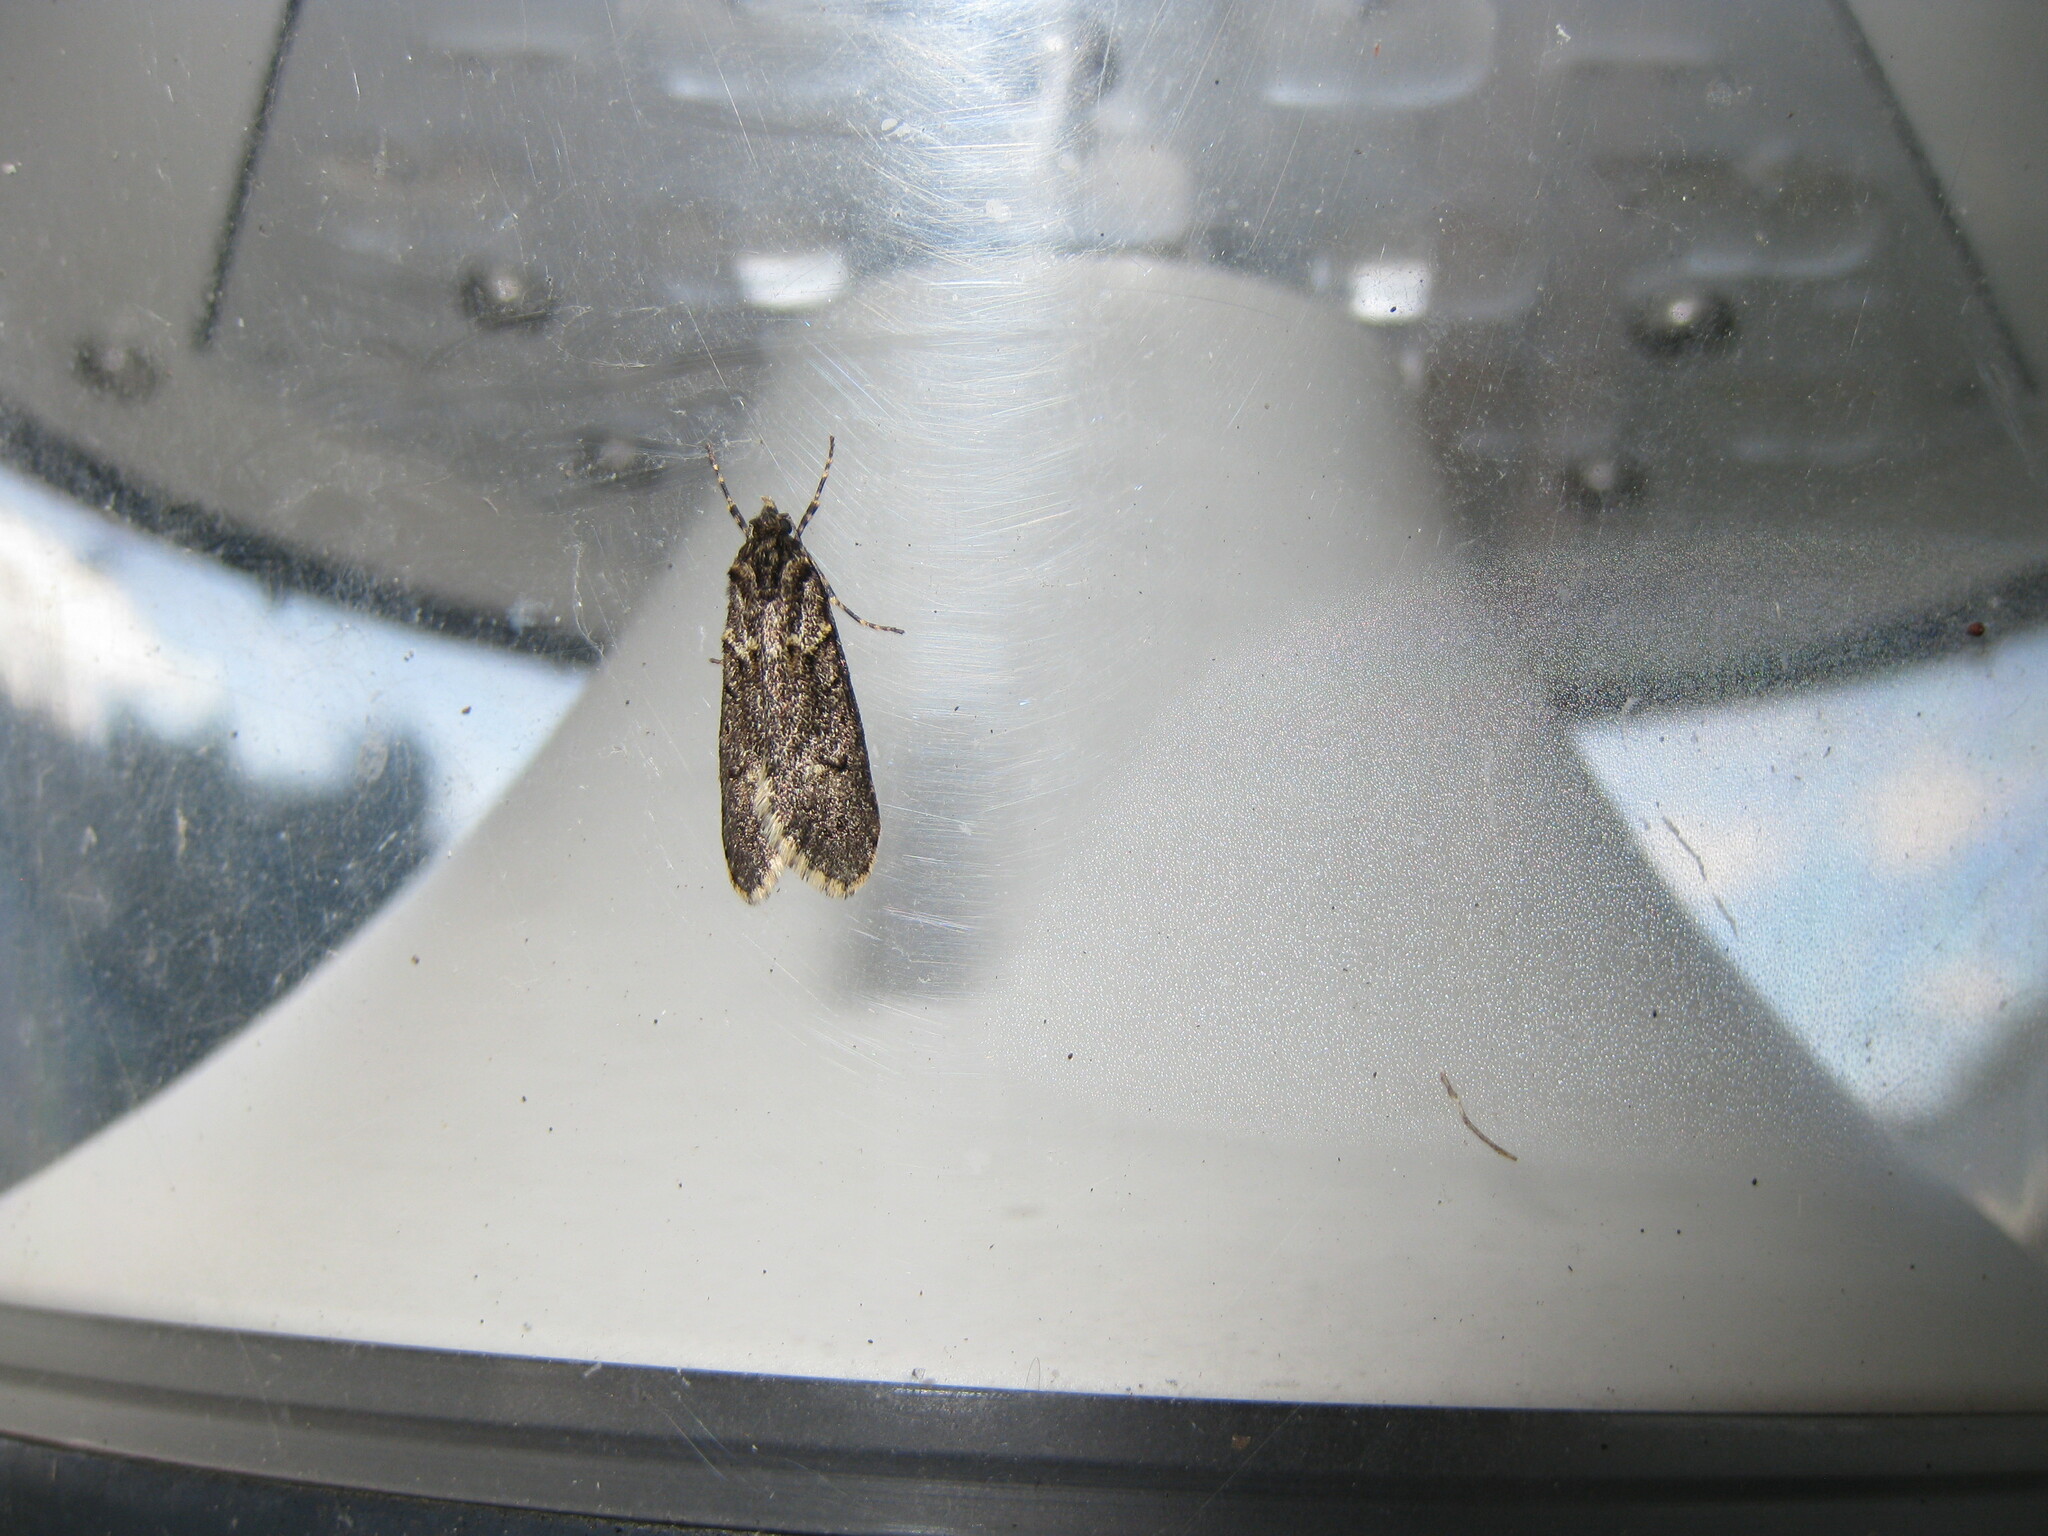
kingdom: Animalia
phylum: Arthropoda
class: Insecta
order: Lepidoptera
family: Lypusidae
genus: Diurnea
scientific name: Diurnea fagella
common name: March tubic
